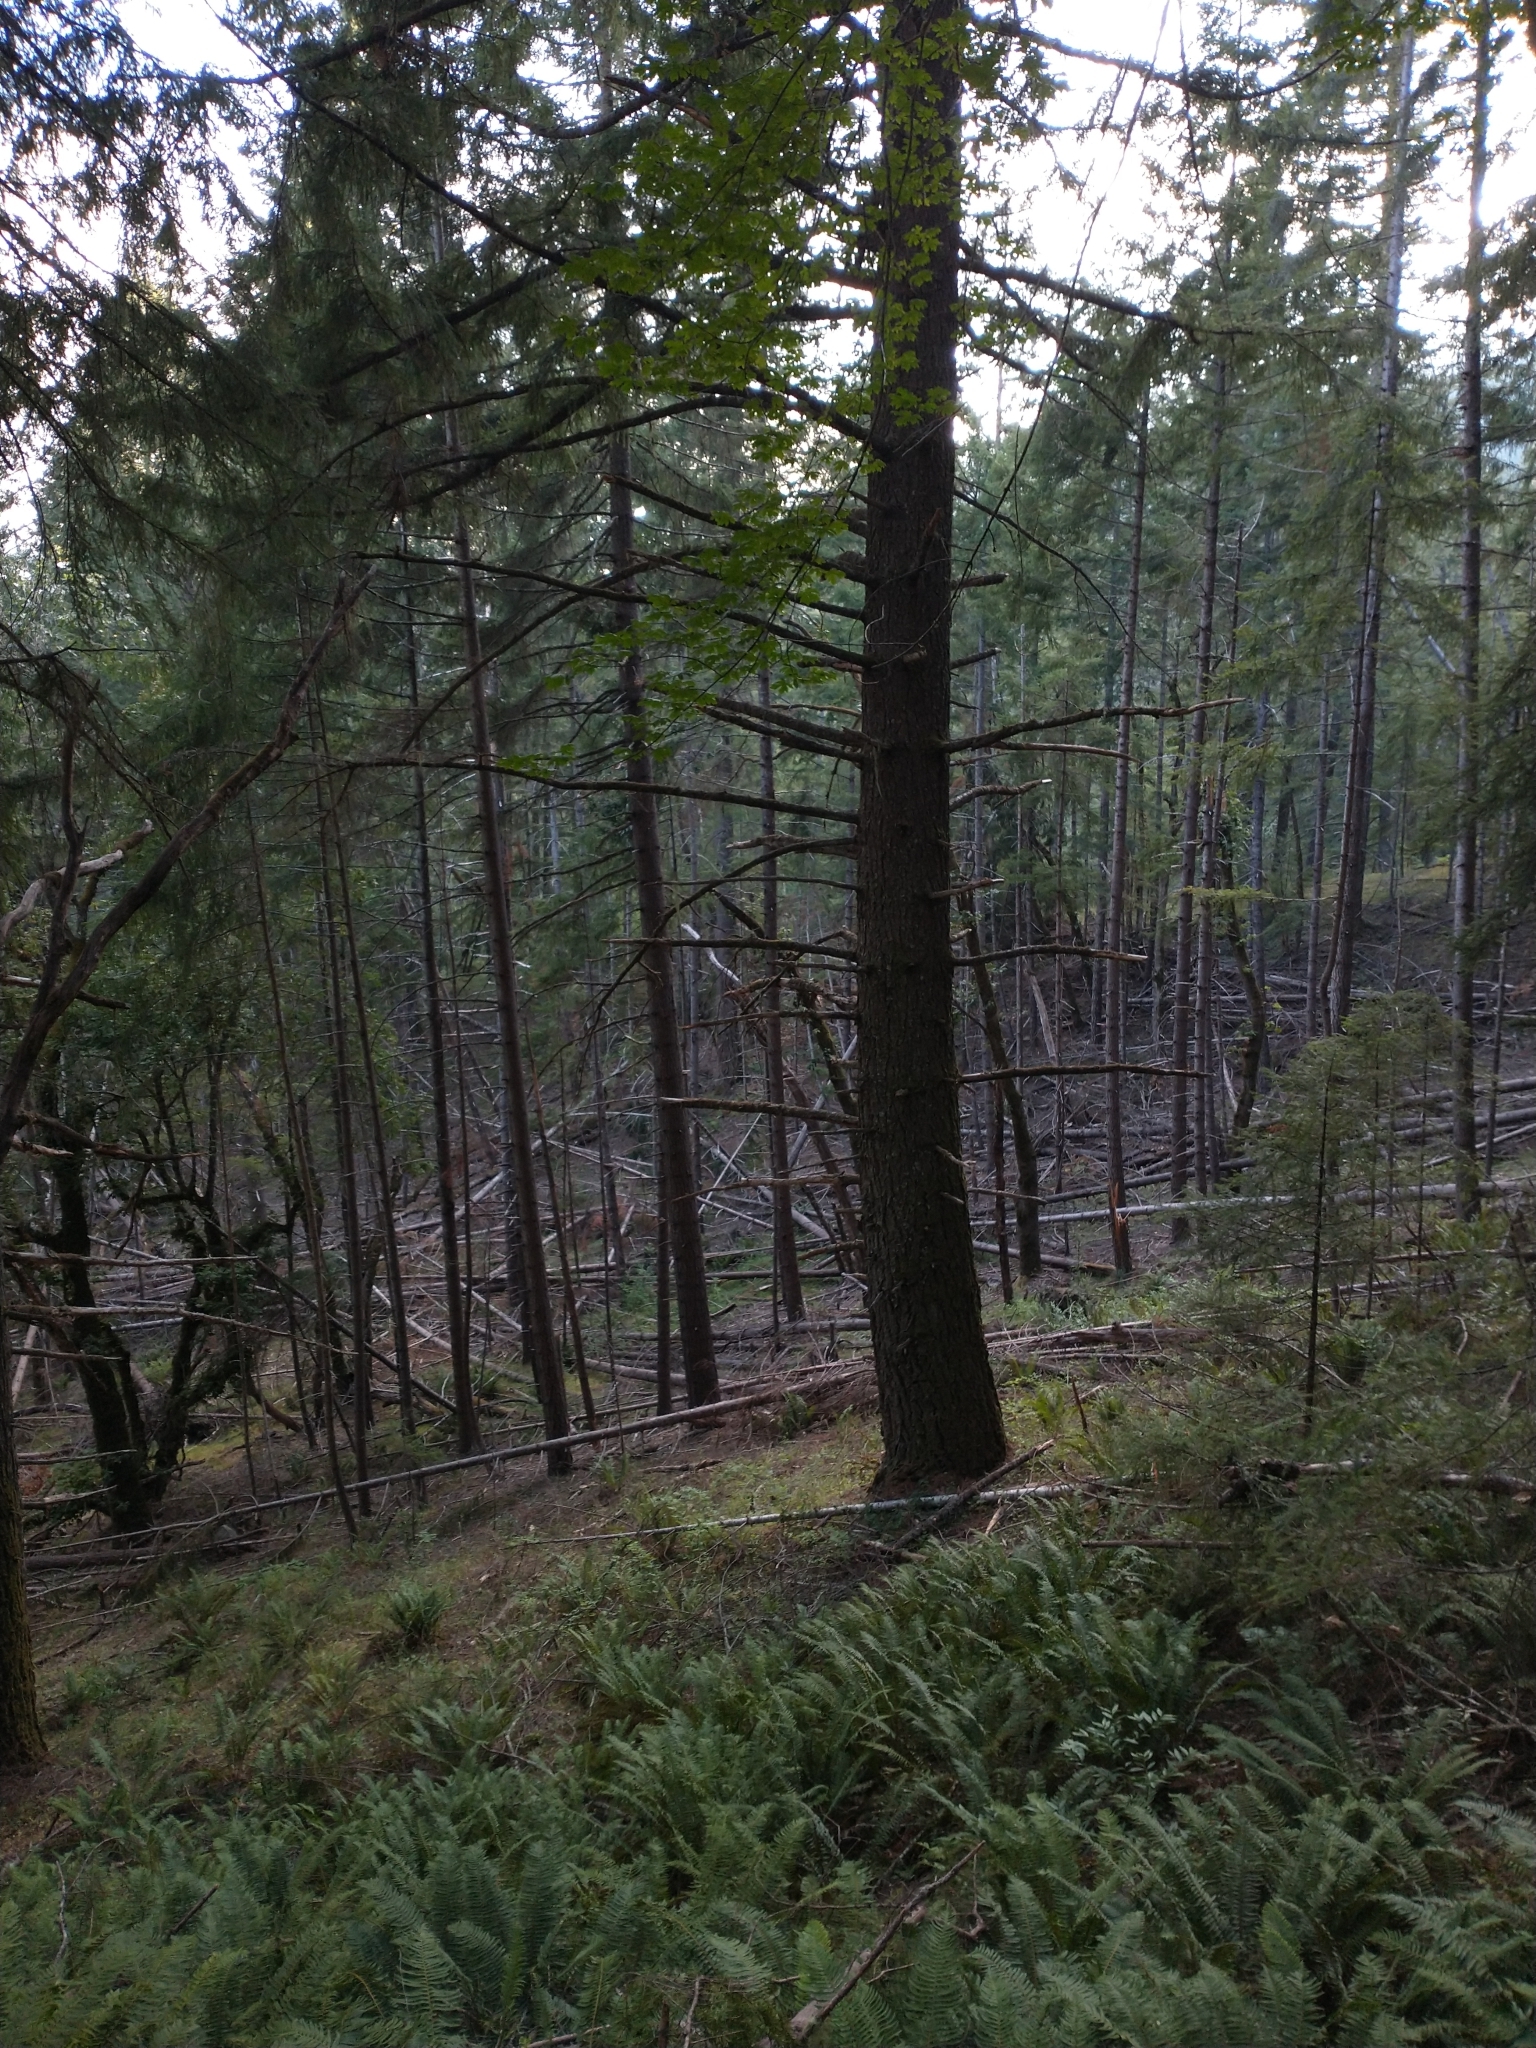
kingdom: Plantae
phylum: Tracheophyta
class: Pinopsida
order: Pinales
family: Pinaceae
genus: Pseudotsuga
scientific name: Pseudotsuga menziesii
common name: Douglas fir
